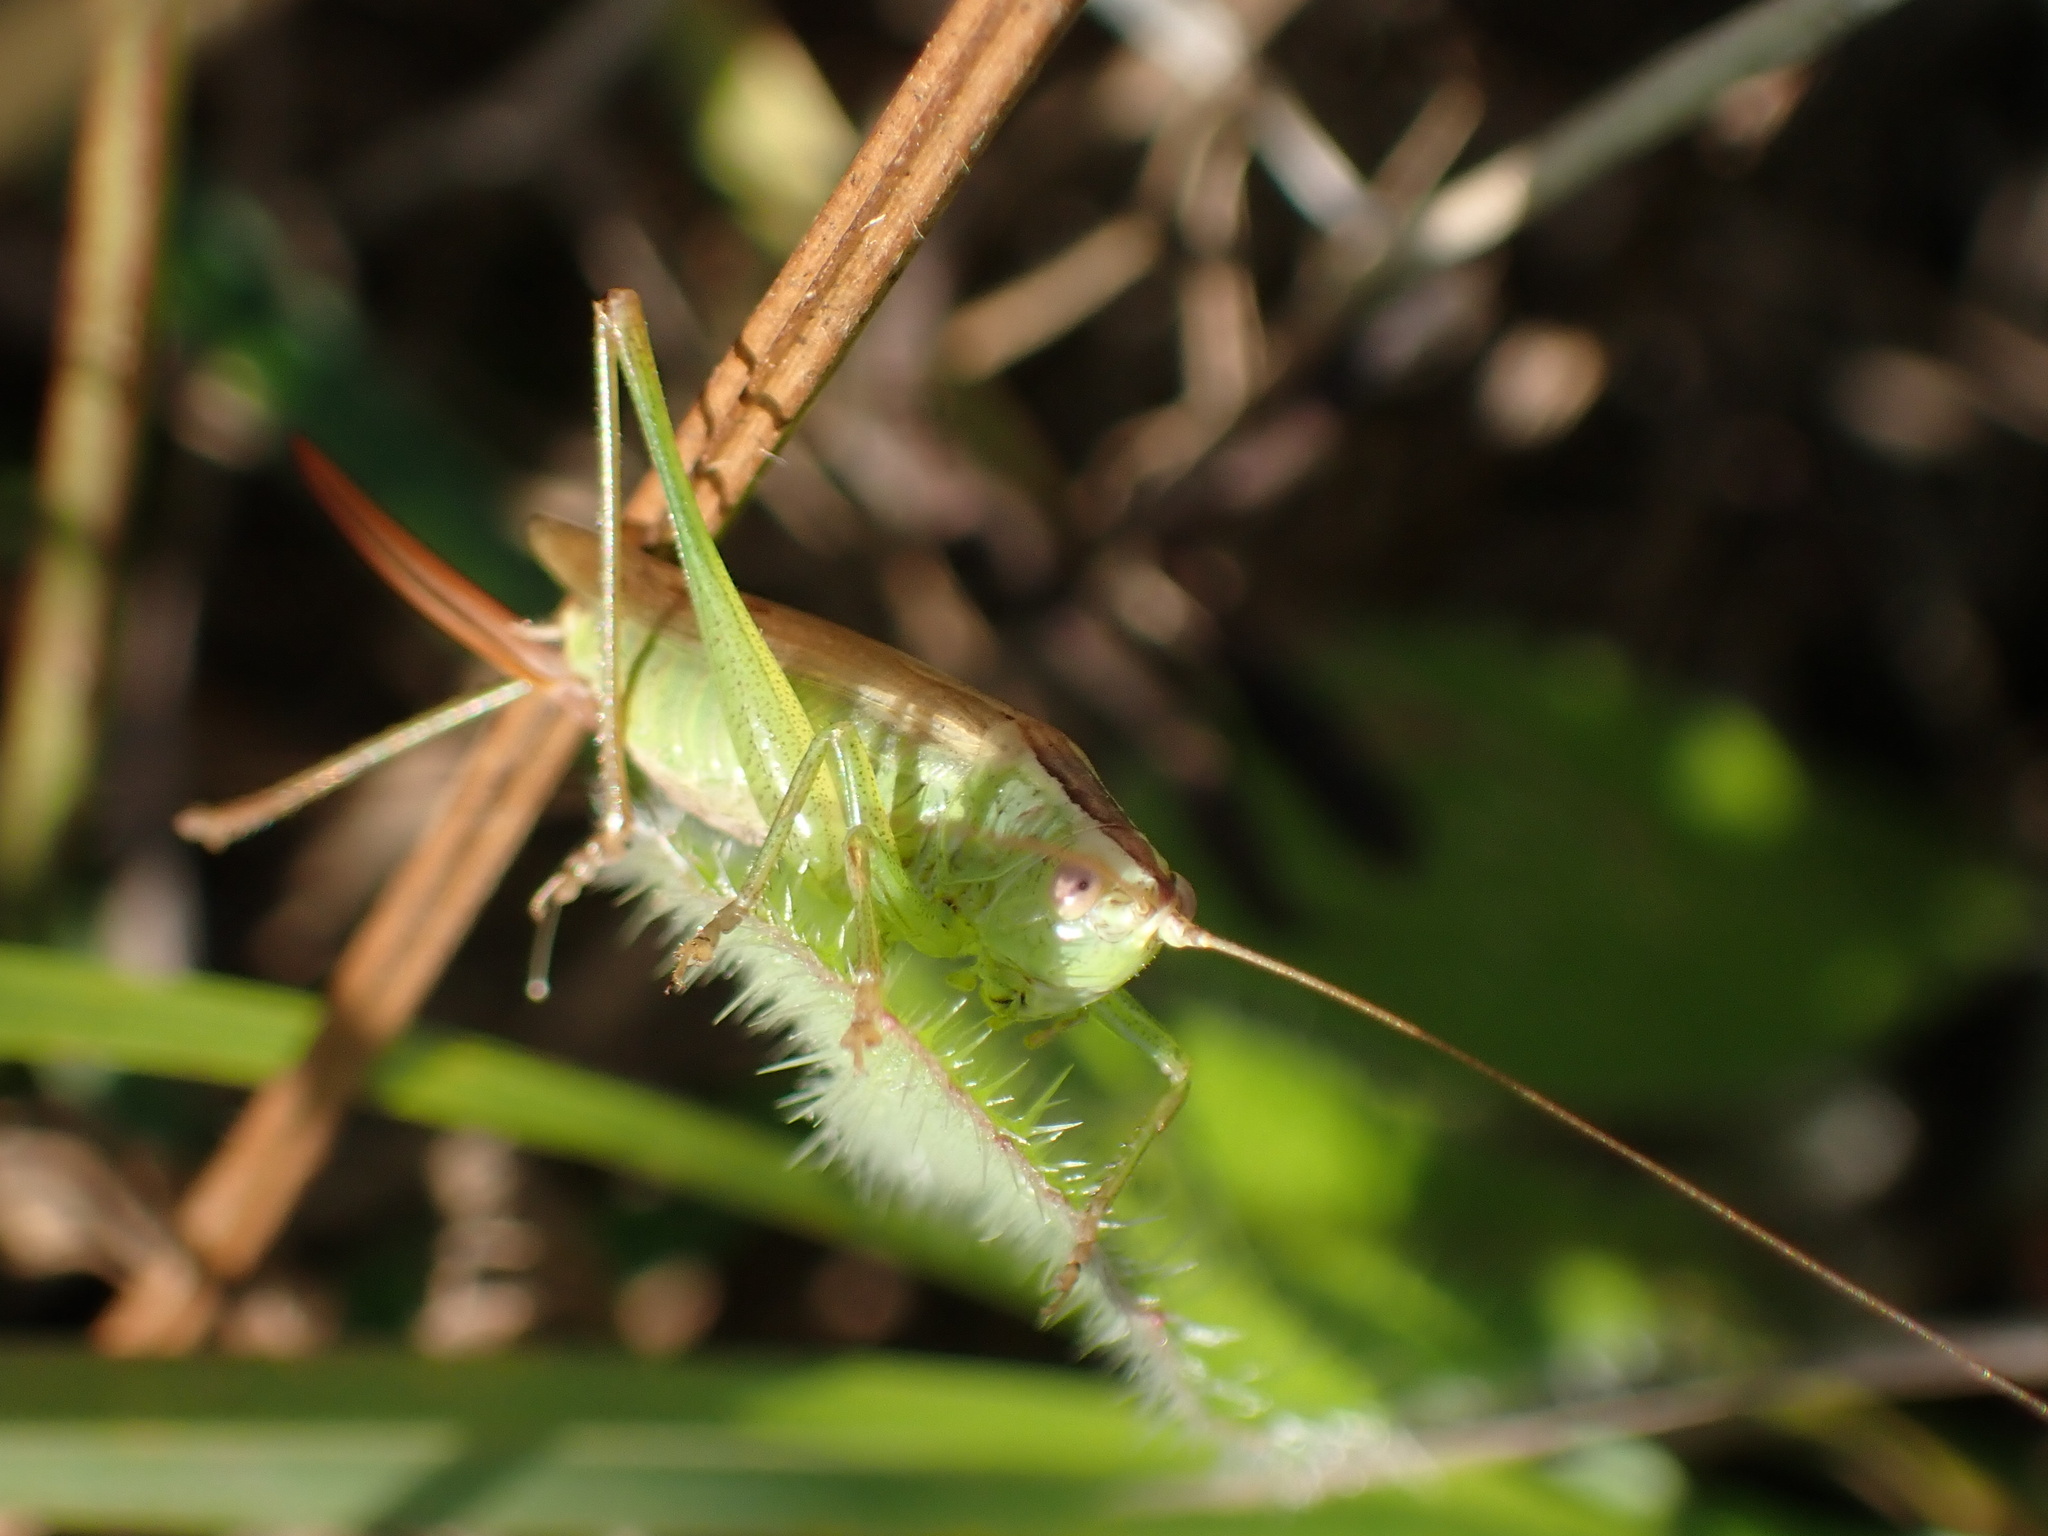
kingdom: Animalia
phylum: Arthropoda
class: Insecta
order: Orthoptera
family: Tettigoniidae
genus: Conocephalus
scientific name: Conocephalus fuscus
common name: Long-winged conehead
